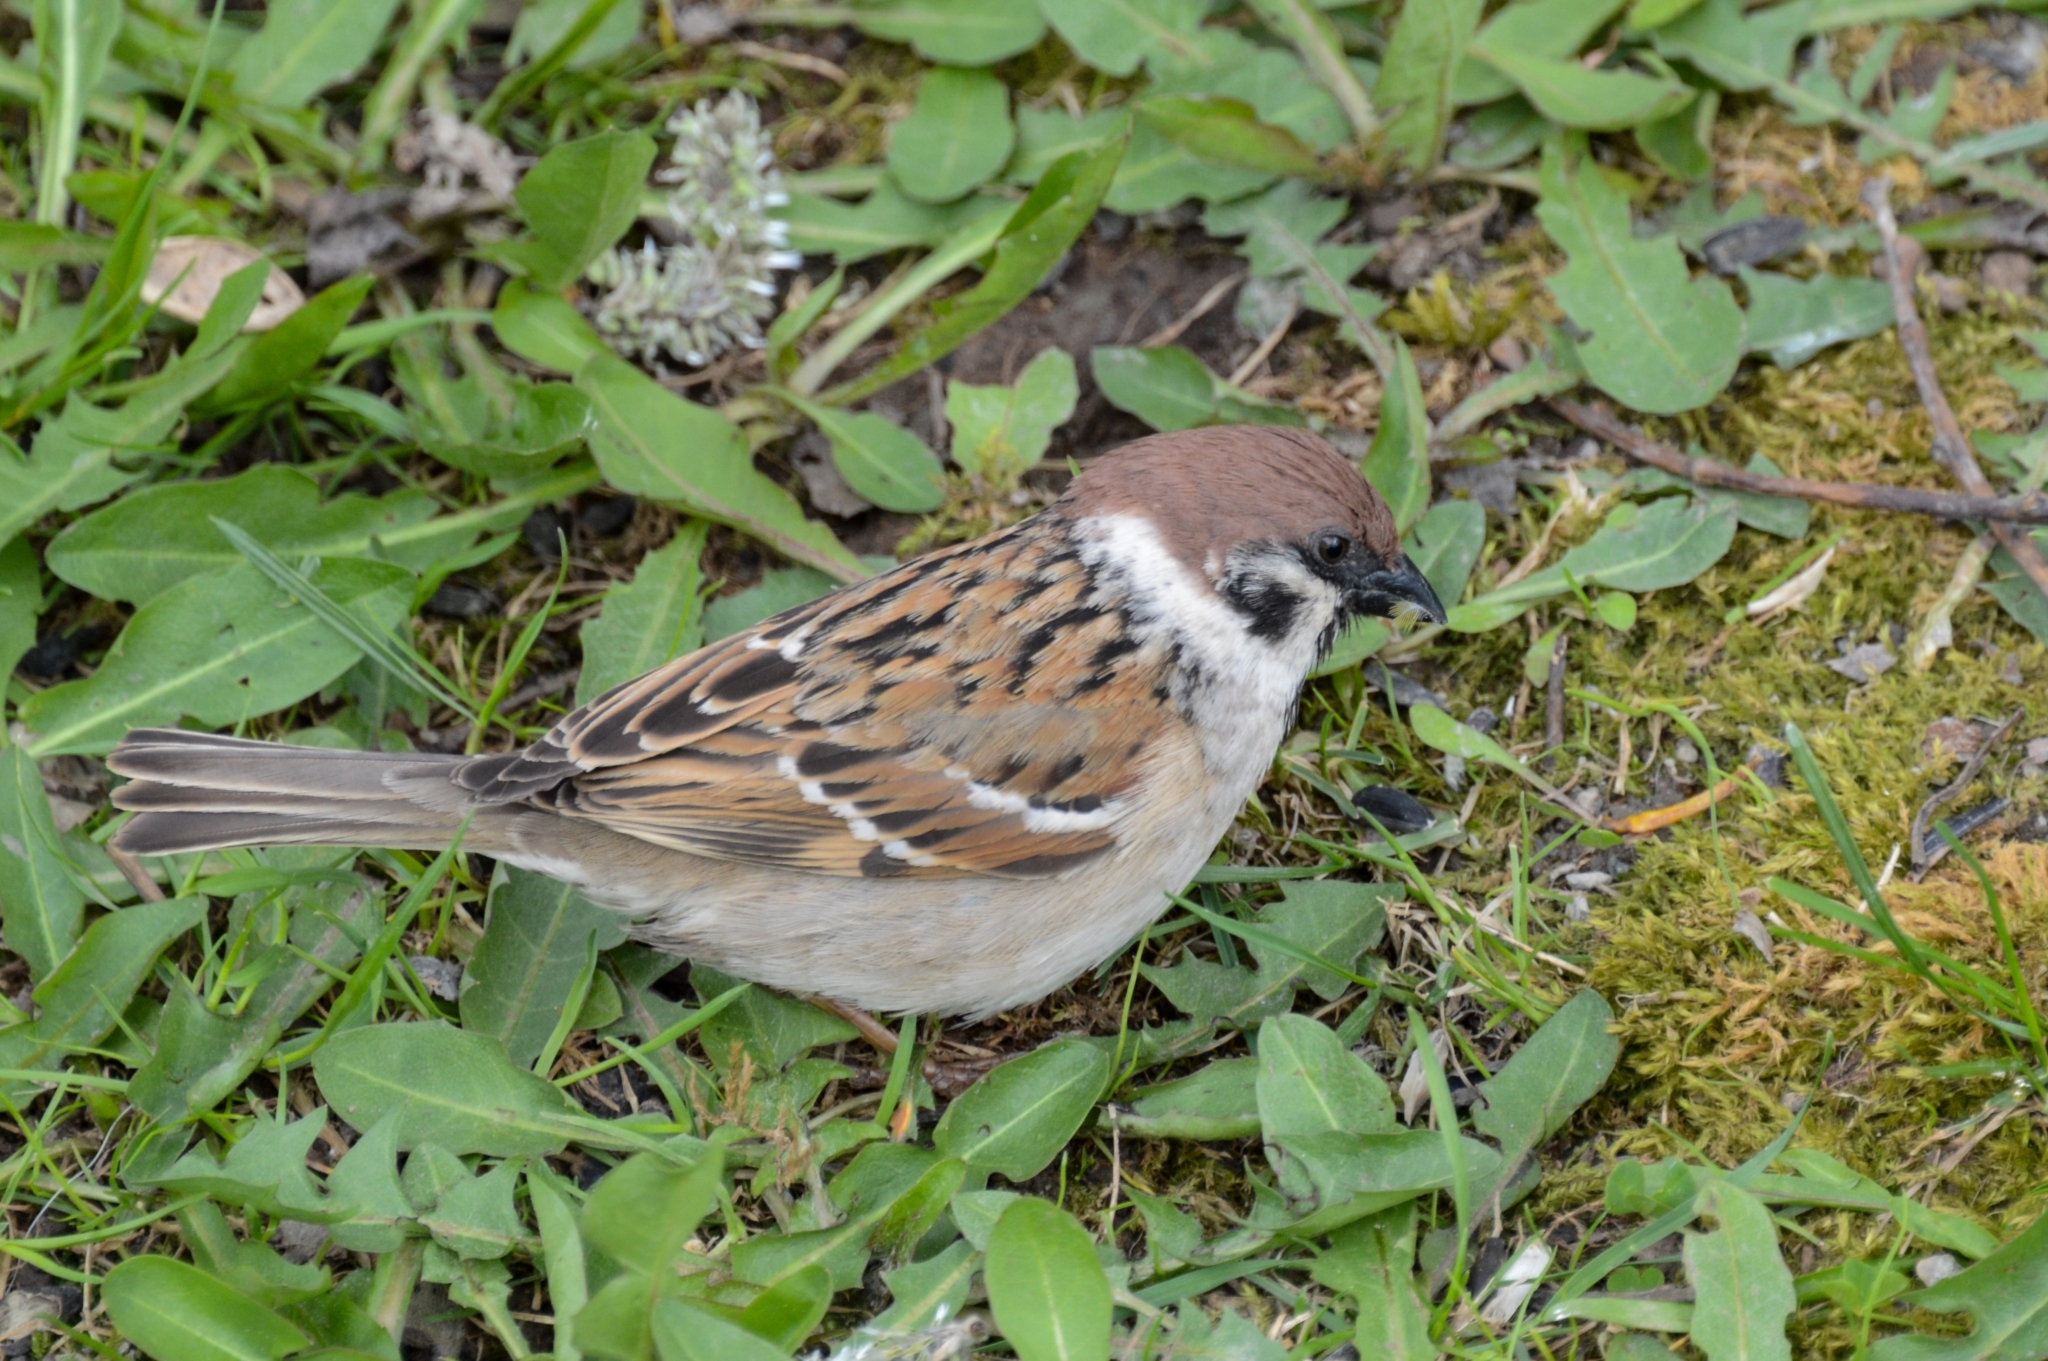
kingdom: Animalia
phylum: Chordata
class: Aves
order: Passeriformes
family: Passeridae
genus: Passer
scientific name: Passer montanus
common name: Eurasian tree sparrow
